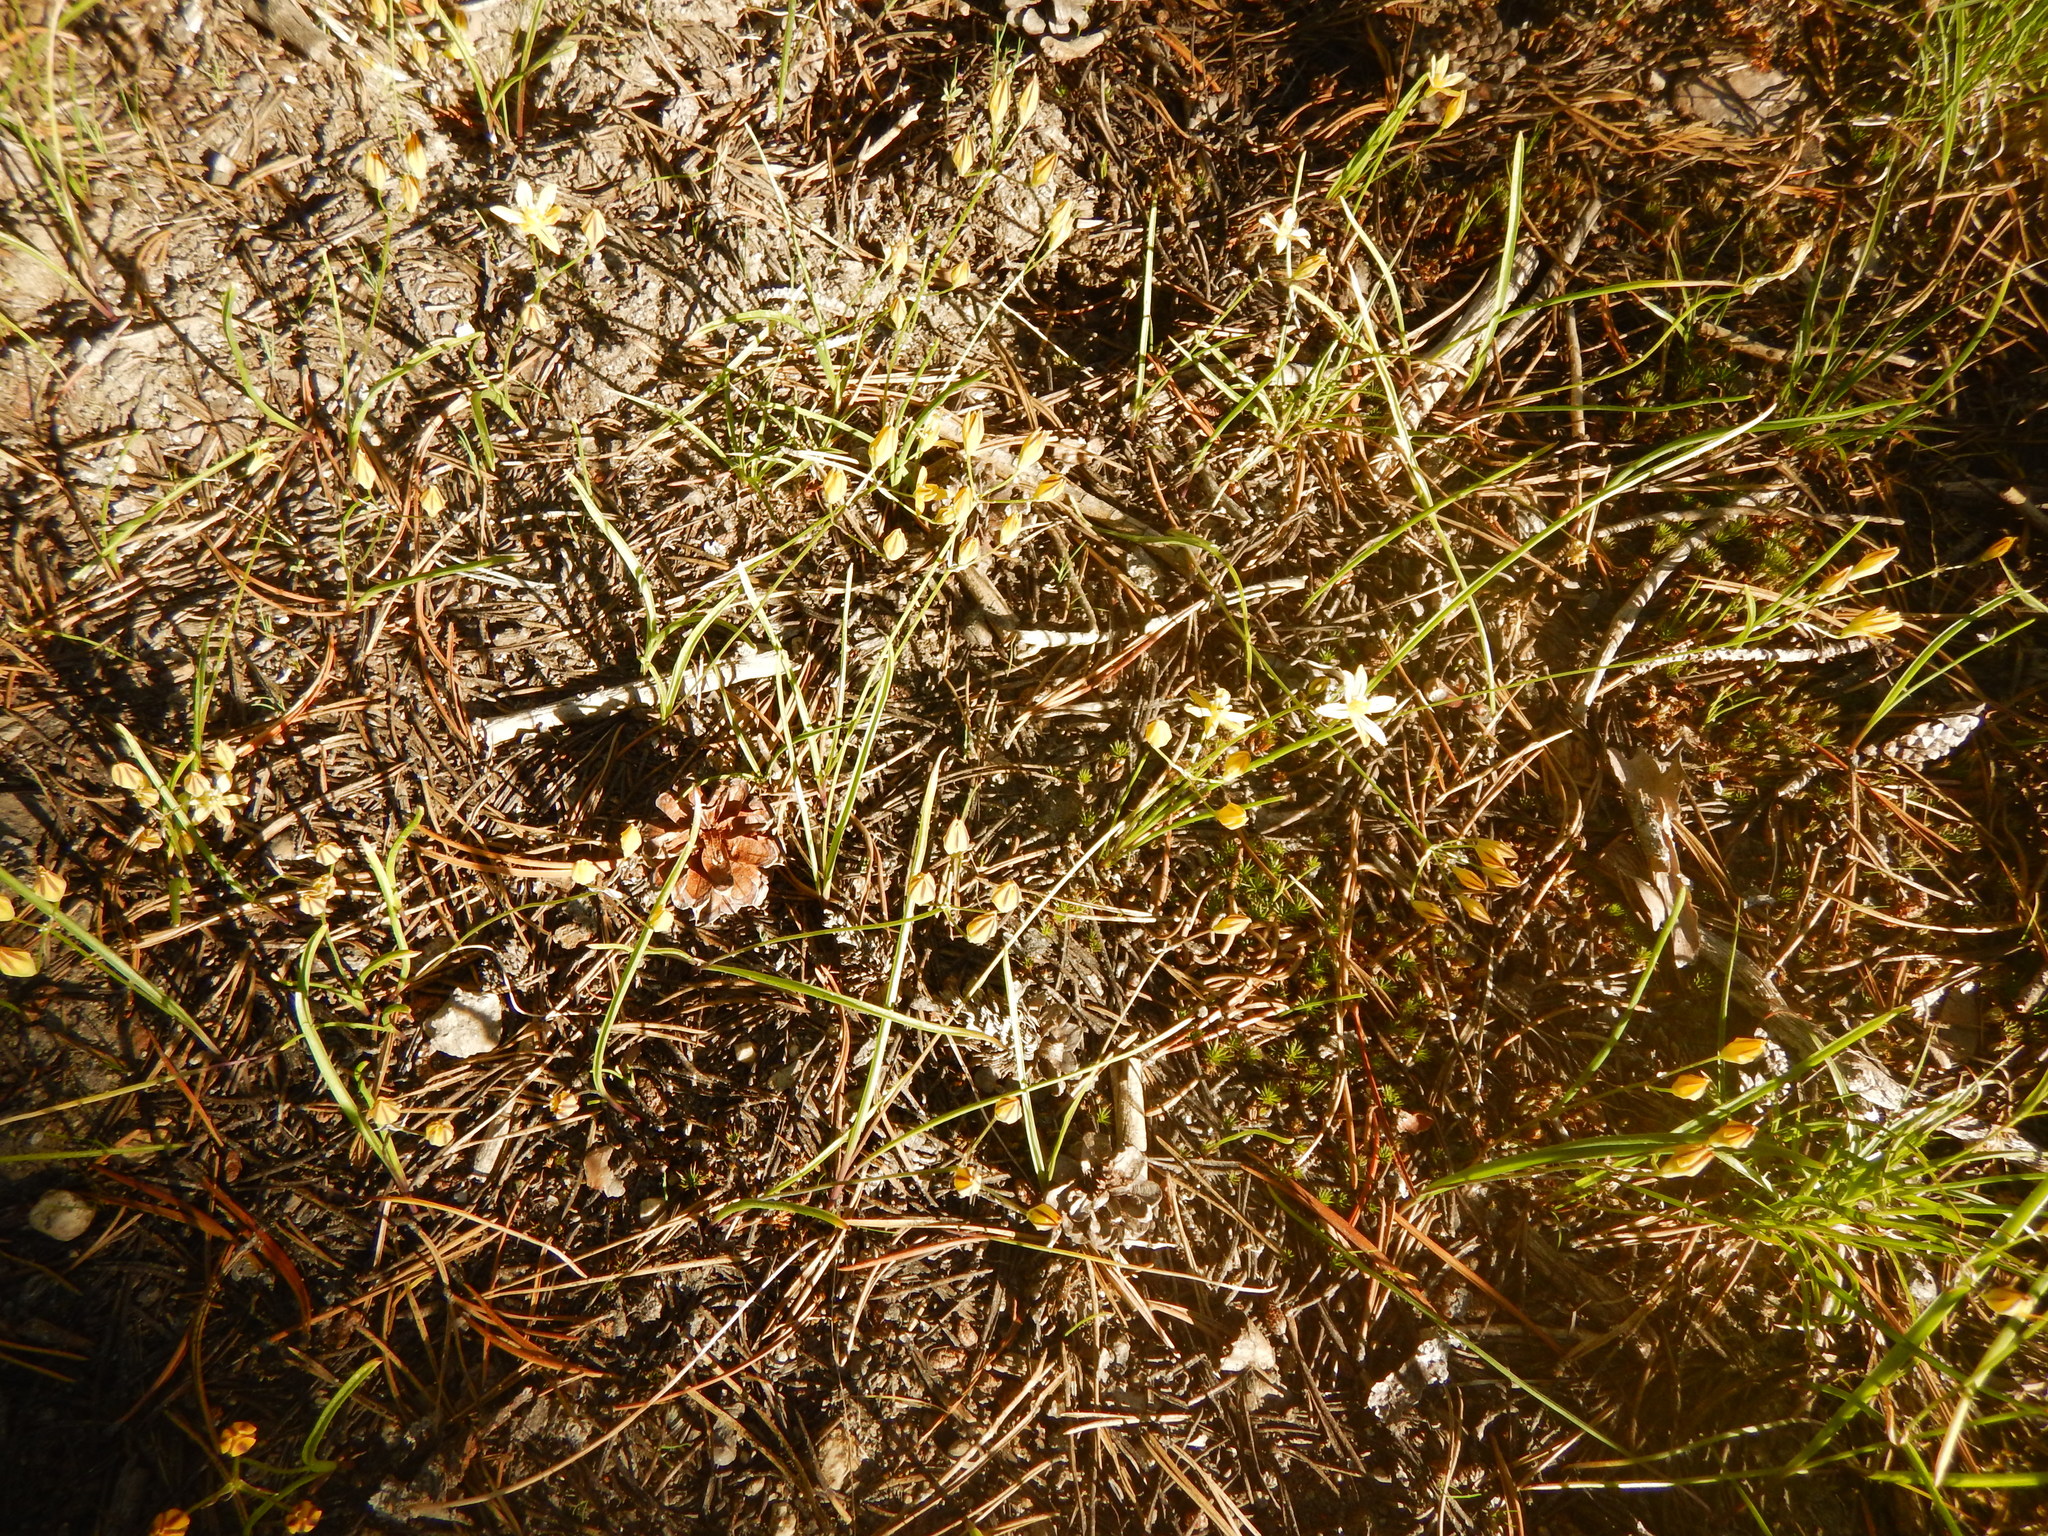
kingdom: Plantae
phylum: Tracheophyta
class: Liliopsida
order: Asparagales
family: Asparagaceae
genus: Triteleia
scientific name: Triteleia ixioides
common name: Yellow-brodiaea
